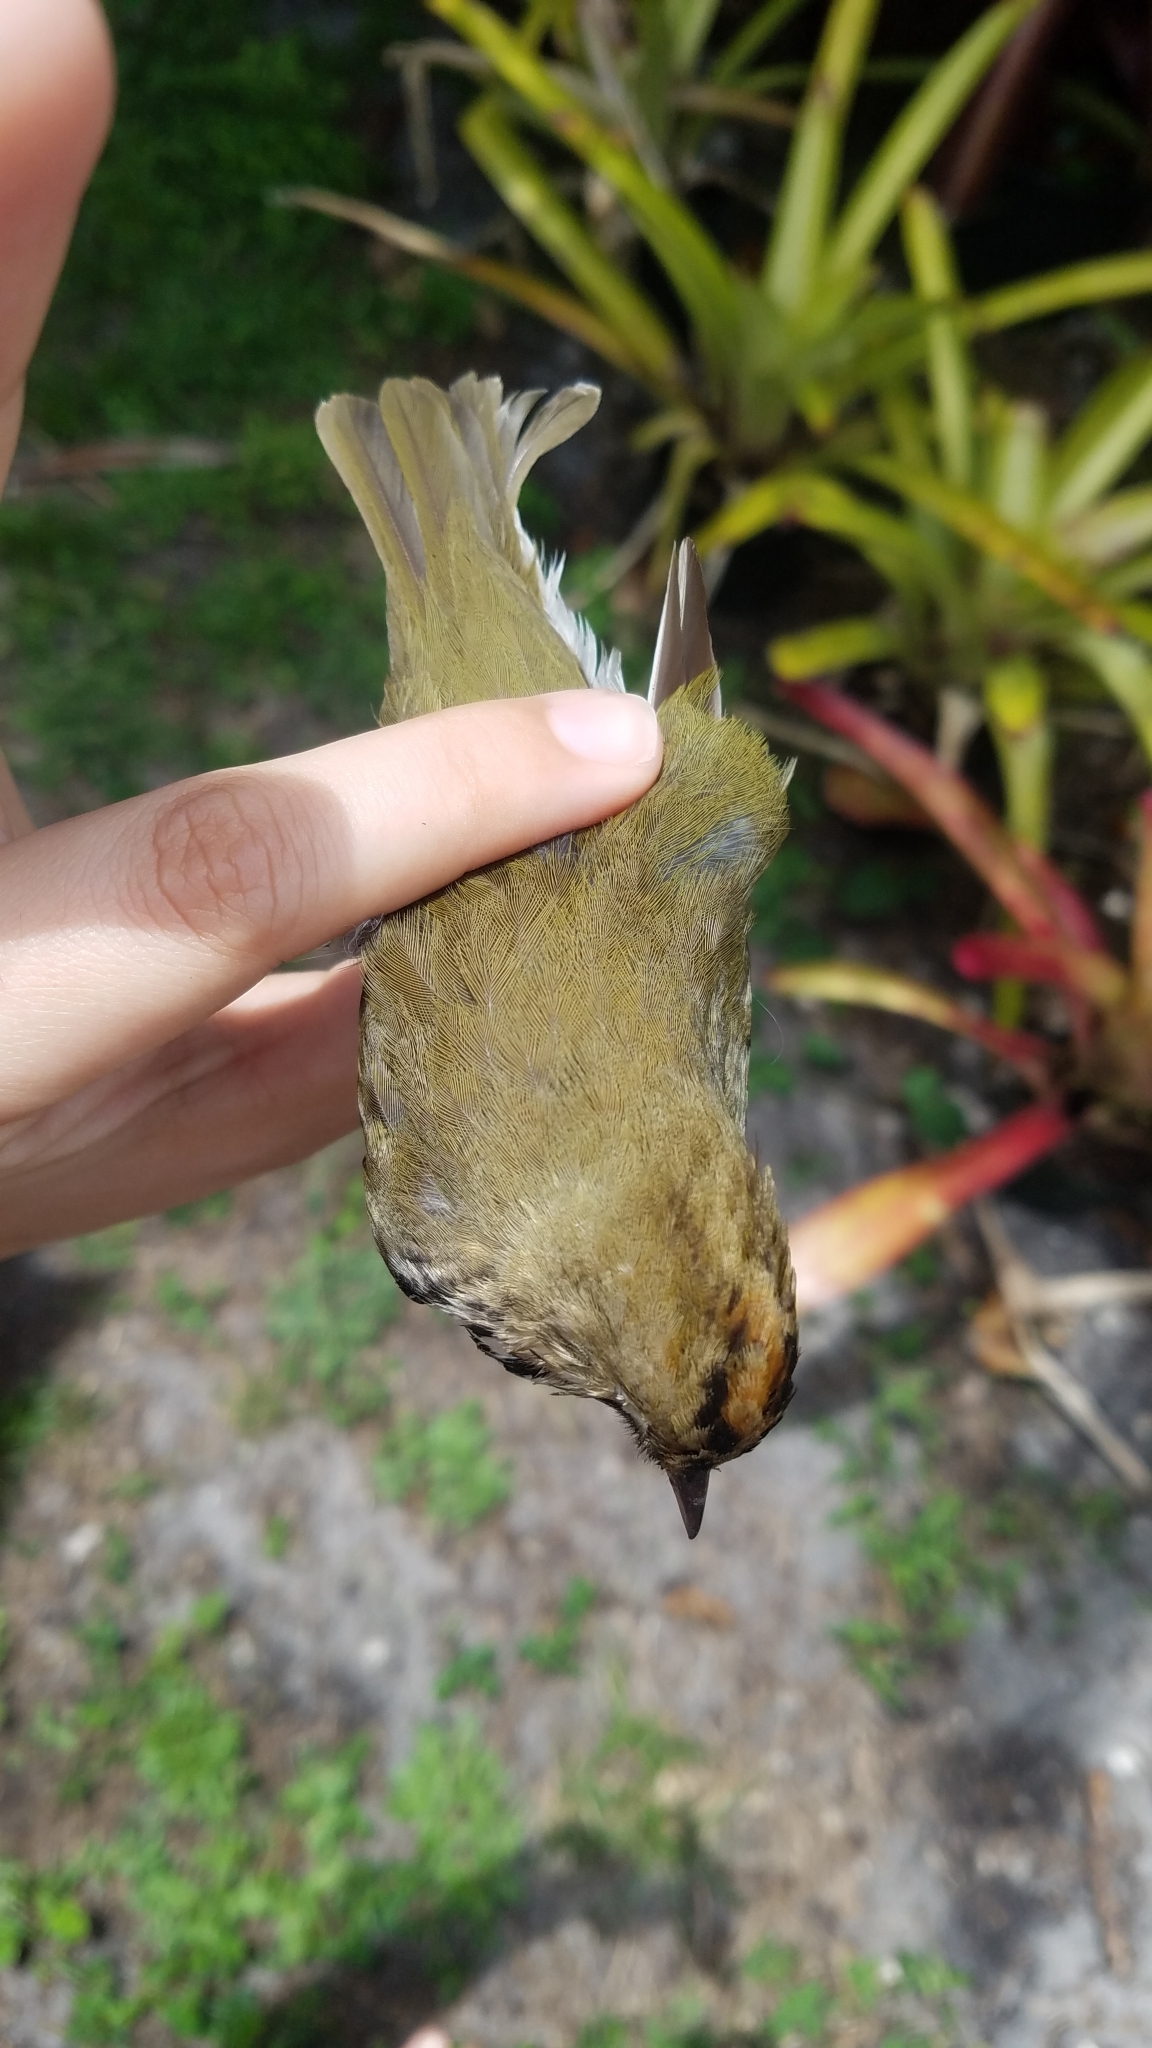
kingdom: Animalia
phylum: Chordata
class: Aves
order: Passeriformes
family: Parulidae
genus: Seiurus
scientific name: Seiurus aurocapilla
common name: Ovenbird
